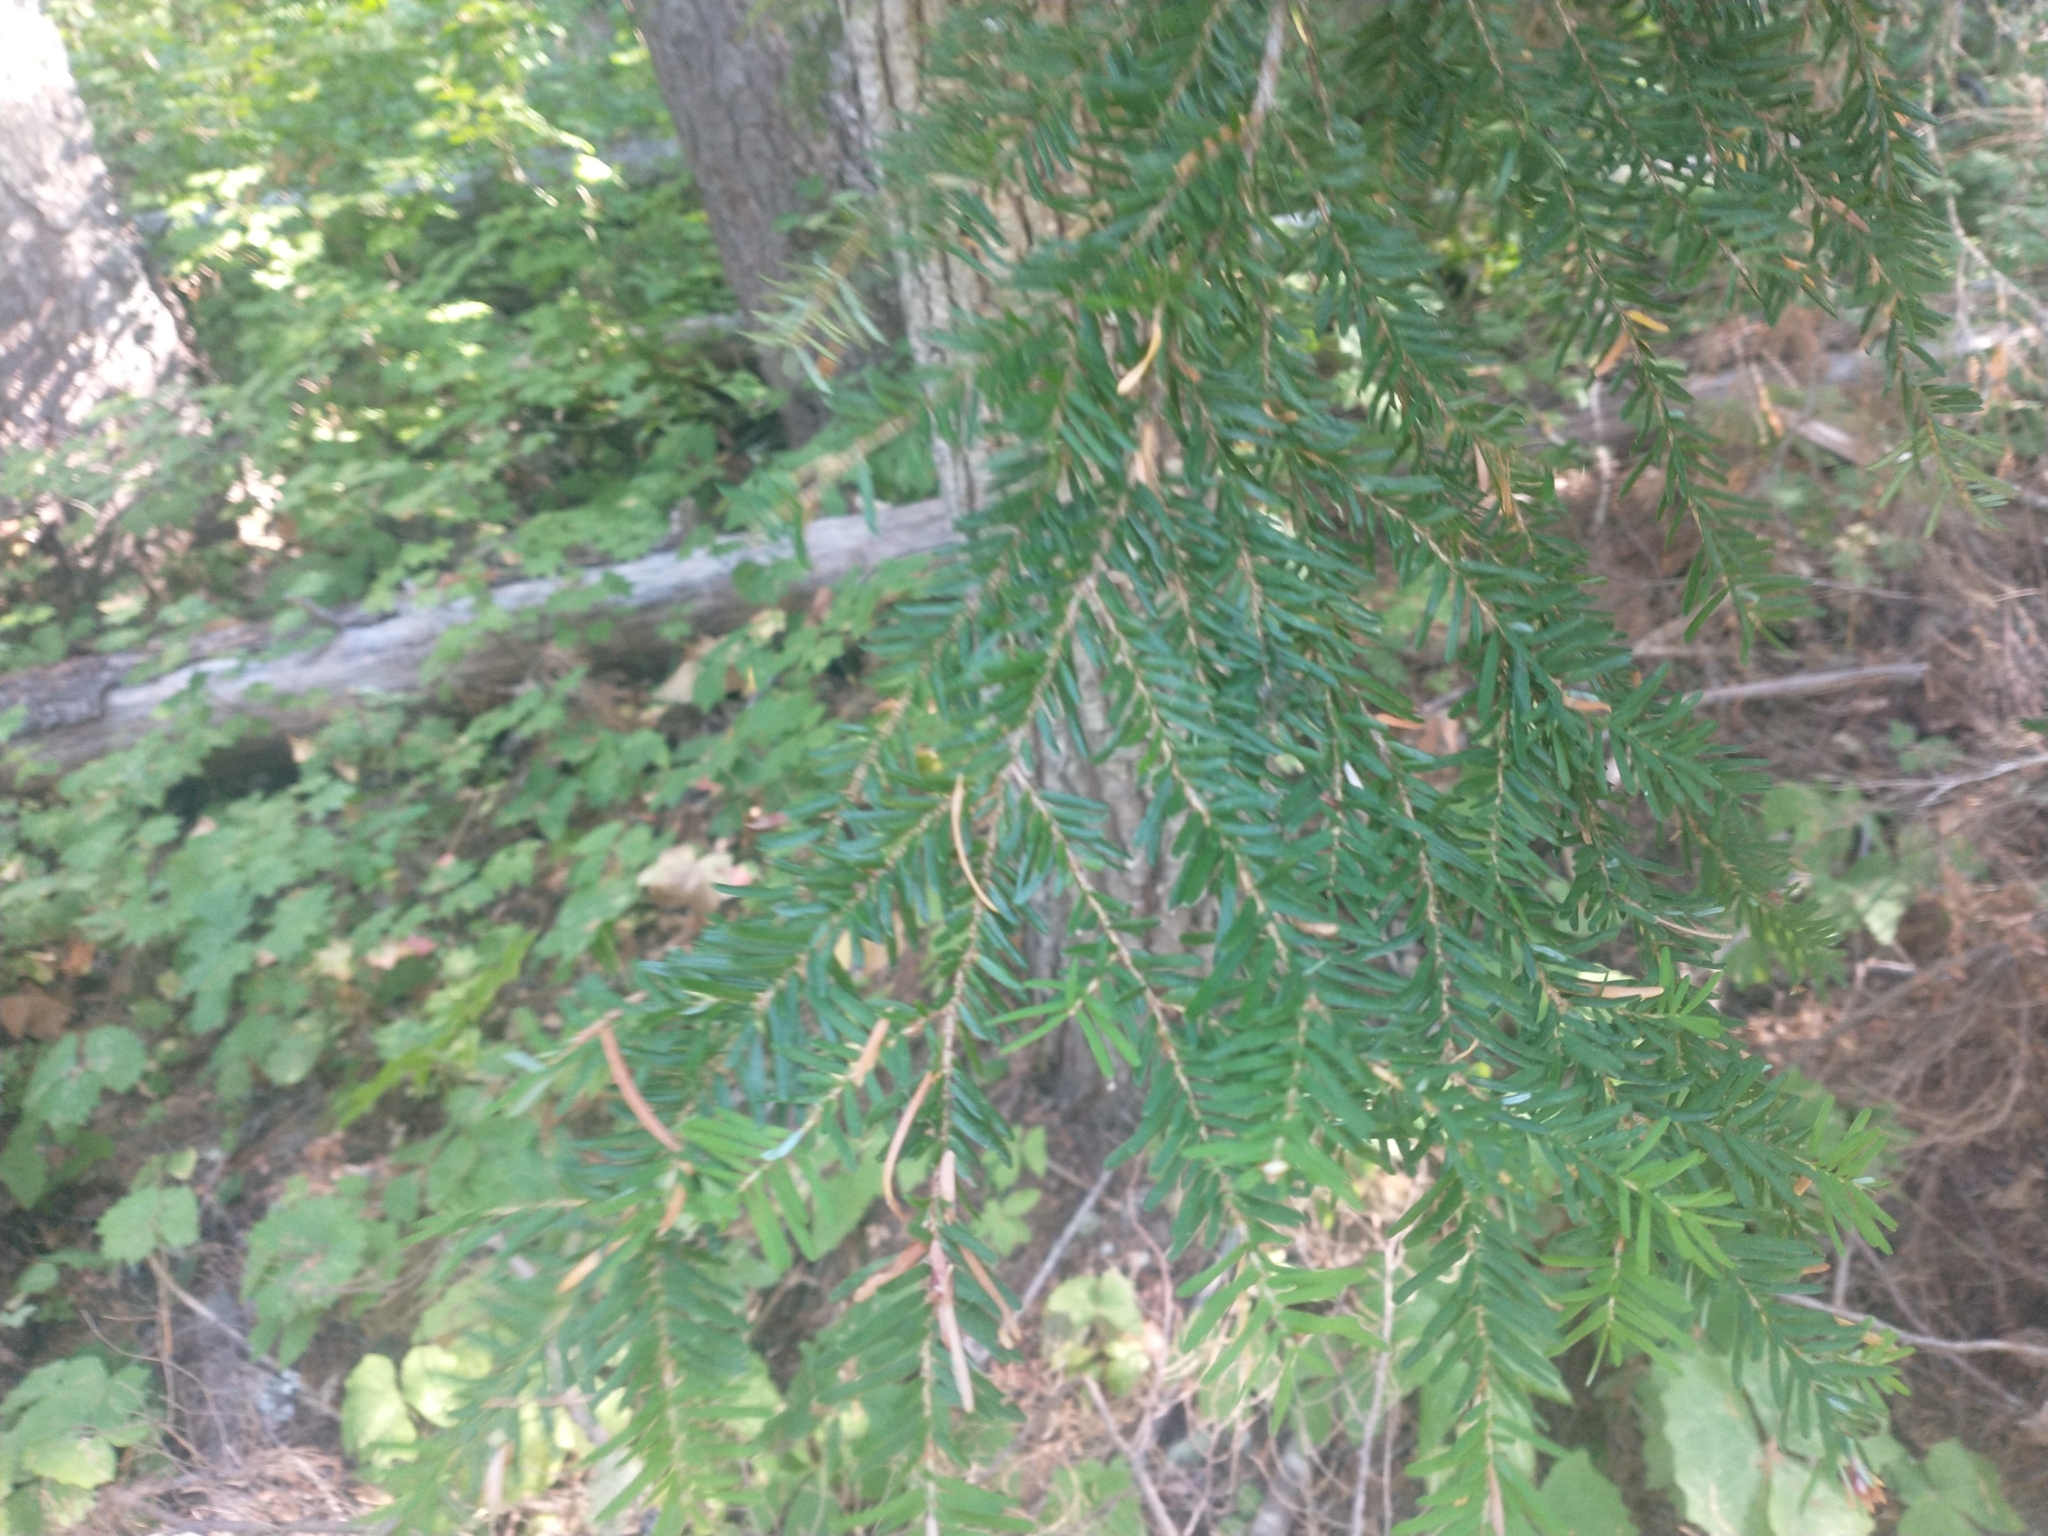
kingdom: Plantae
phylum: Tracheophyta
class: Pinopsida
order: Pinales
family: Pinaceae
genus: Tsuga
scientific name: Tsuga heterophylla
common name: Western hemlock
